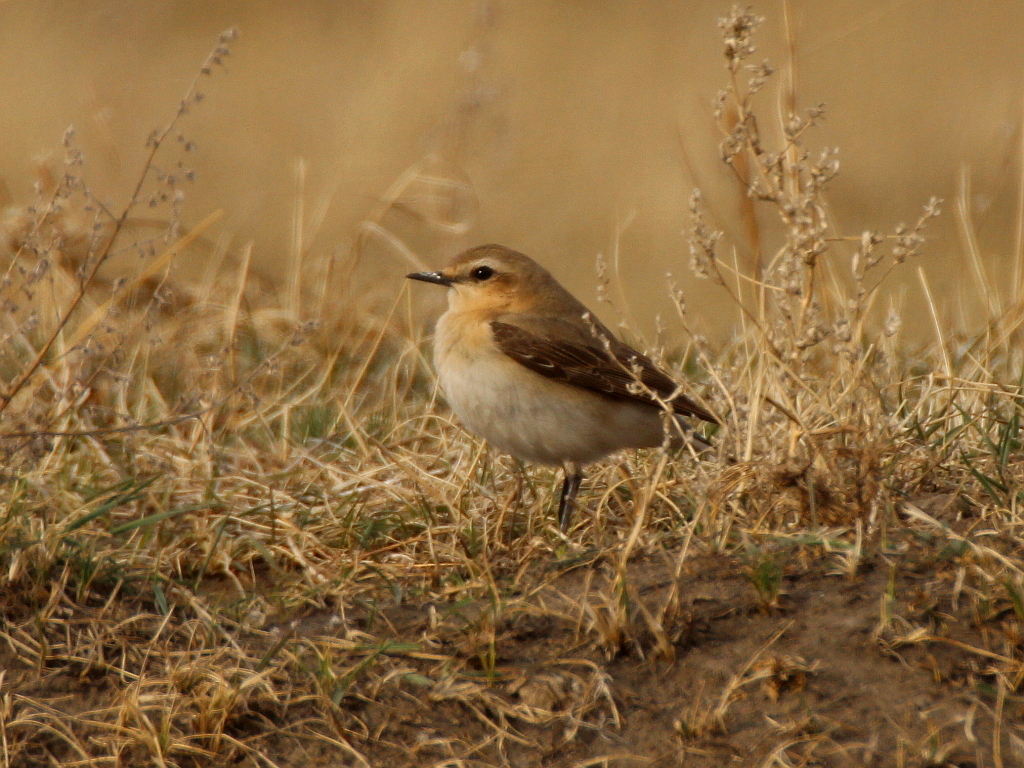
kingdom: Animalia
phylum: Chordata
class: Aves
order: Passeriformes
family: Muscicapidae
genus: Oenanthe
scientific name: Oenanthe oenanthe
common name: Northern wheatear
